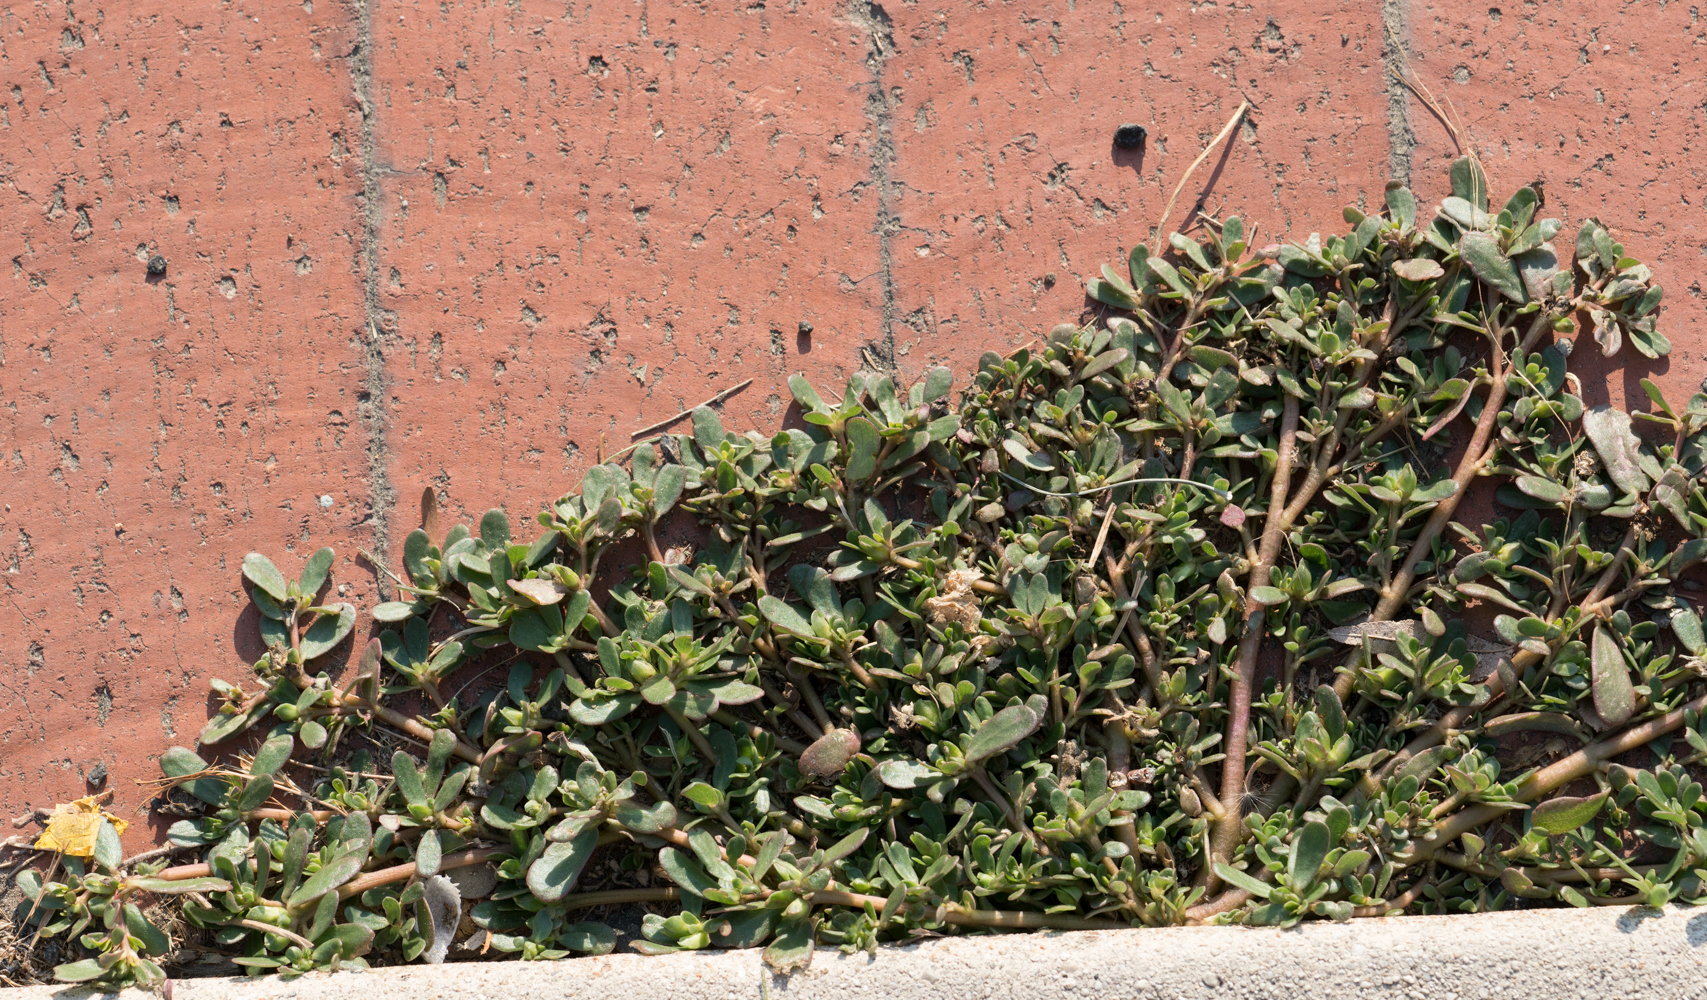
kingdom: Plantae
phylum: Tracheophyta
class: Magnoliopsida
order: Caryophyllales
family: Portulacaceae
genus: Portulaca
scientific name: Portulaca oleracea
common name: Common purslane
